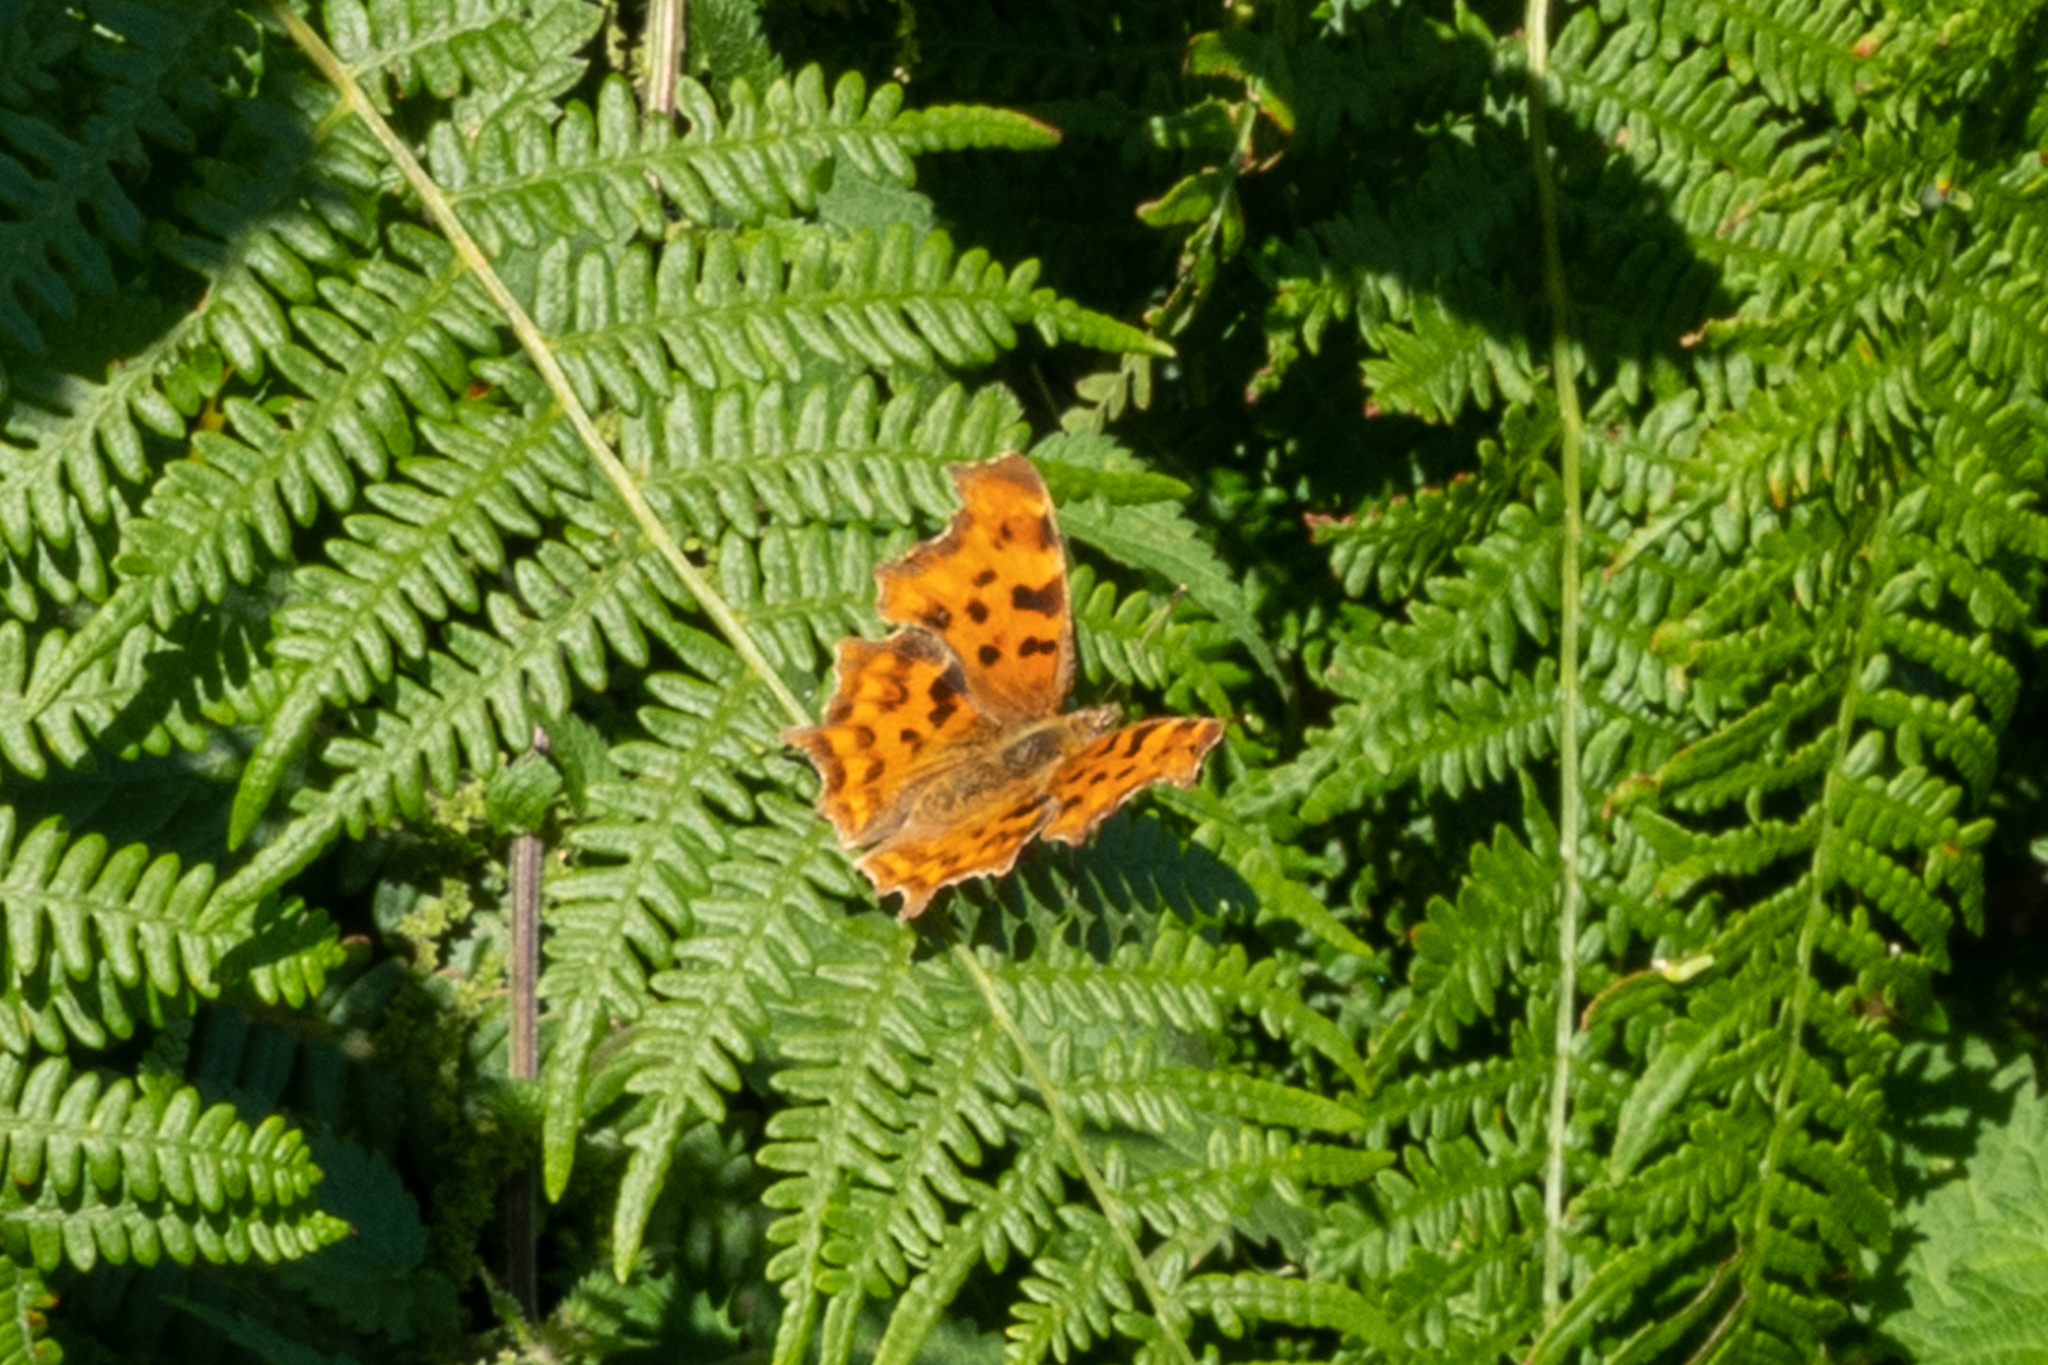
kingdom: Animalia
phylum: Arthropoda
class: Insecta
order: Lepidoptera
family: Nymphalidae
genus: Polygonia
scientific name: Polygonia c-album
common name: Comma
